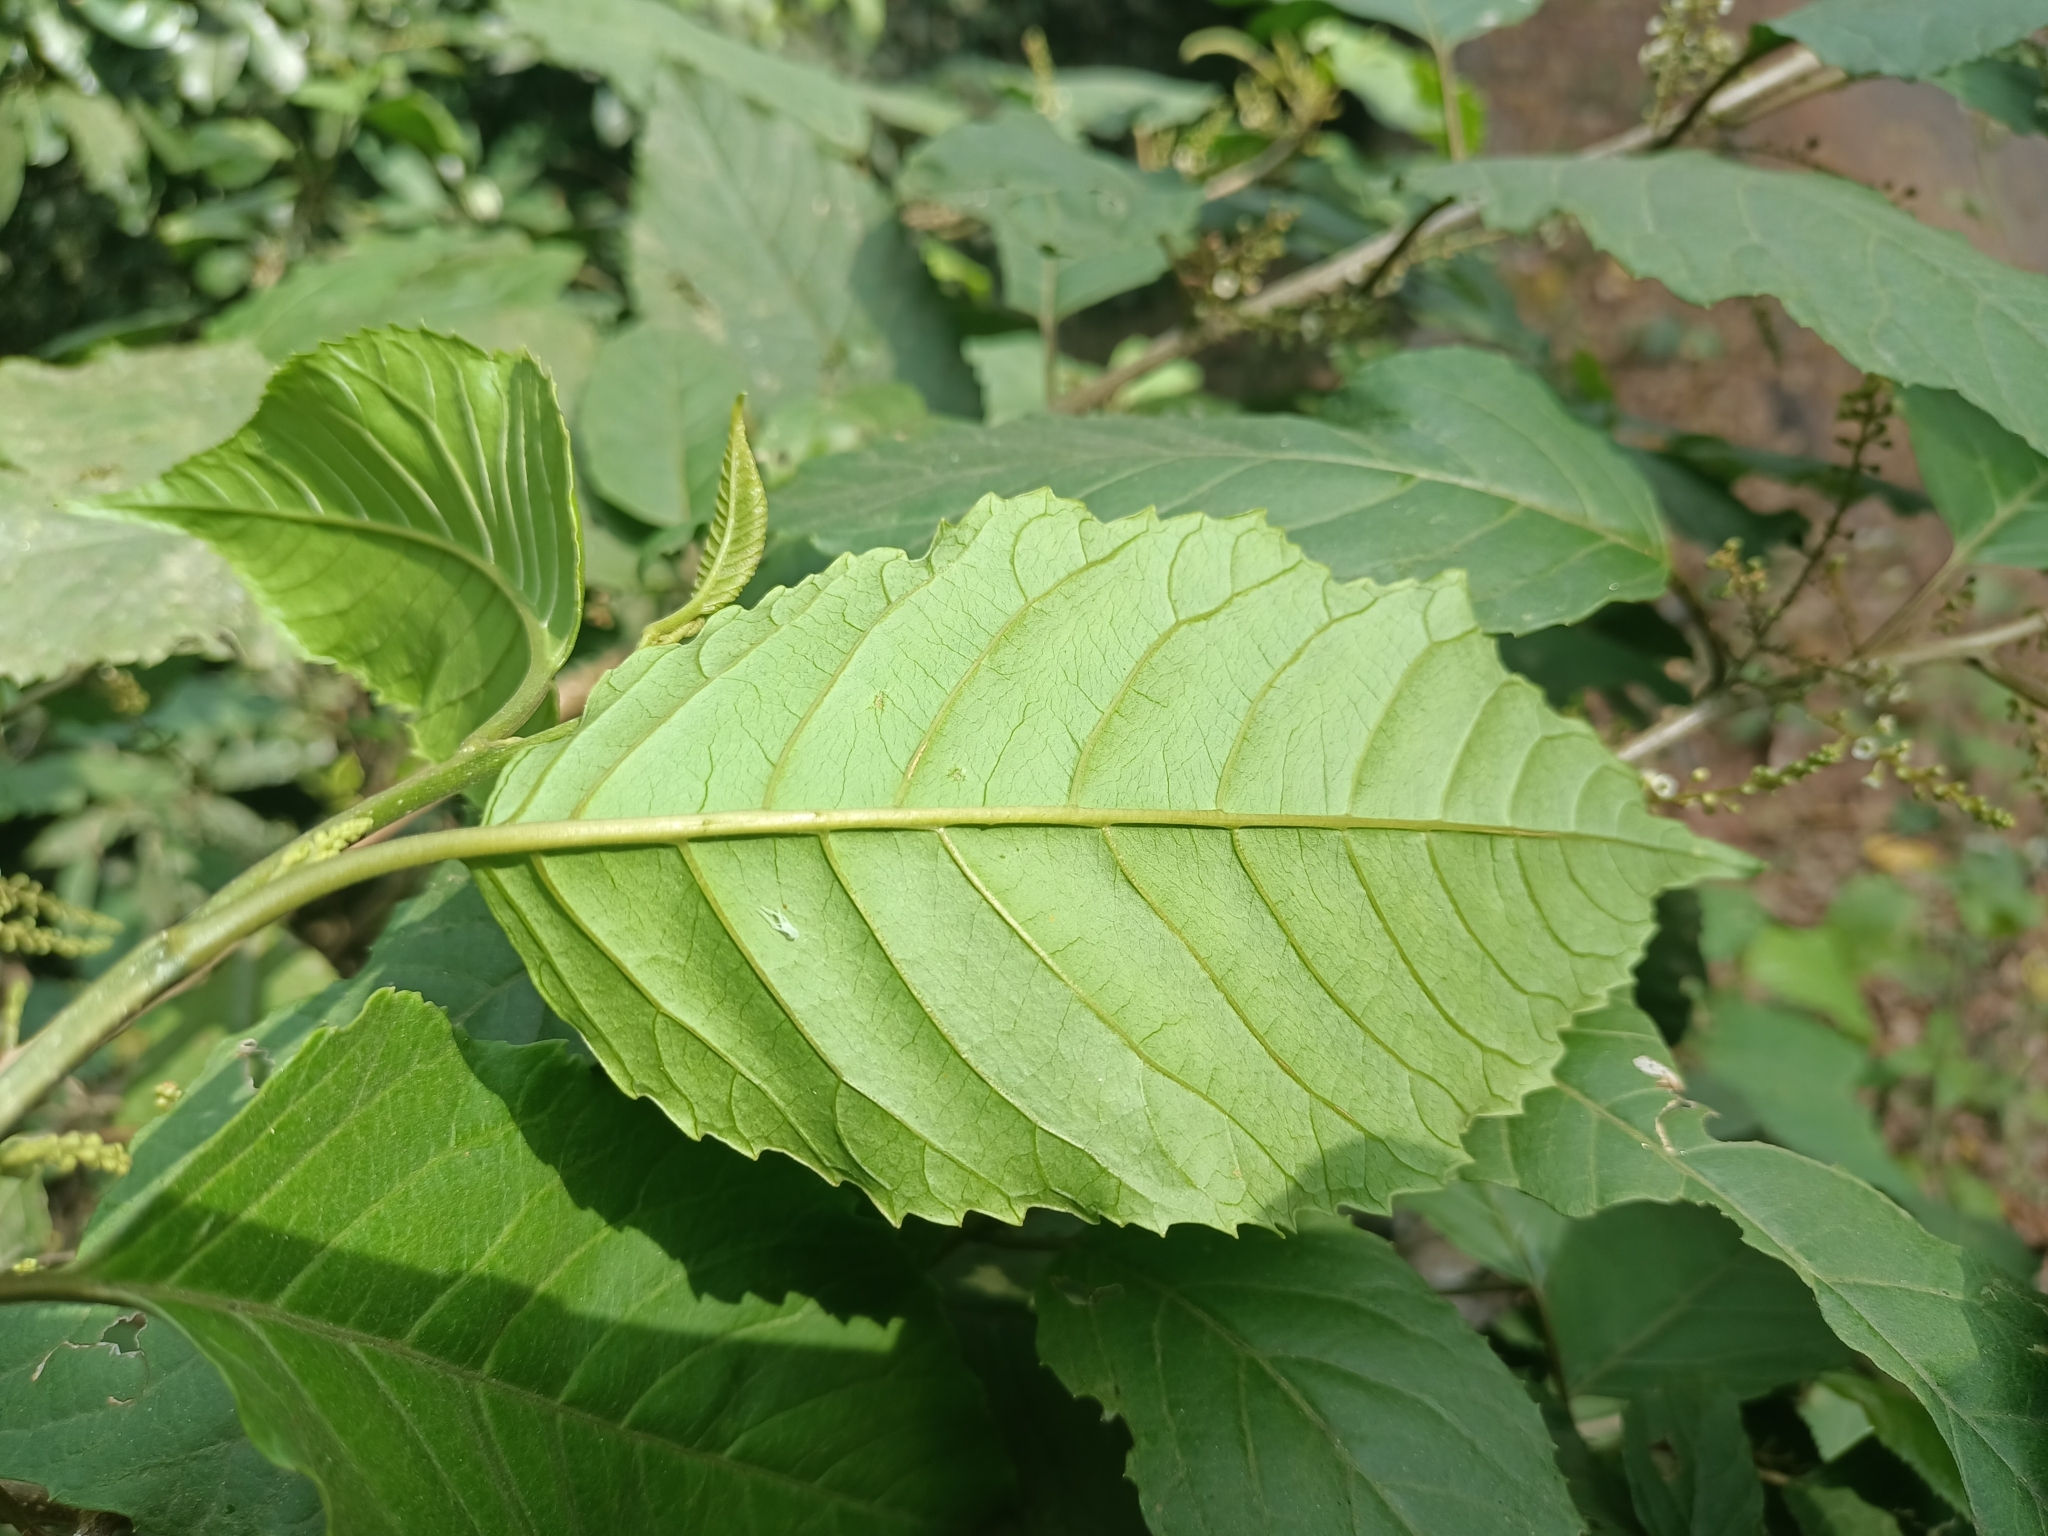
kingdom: Plantae
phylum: Tracheophyta
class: Magnoliopsida
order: Ericales
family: Primulaceae
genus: Maesa
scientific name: Maesa indica
